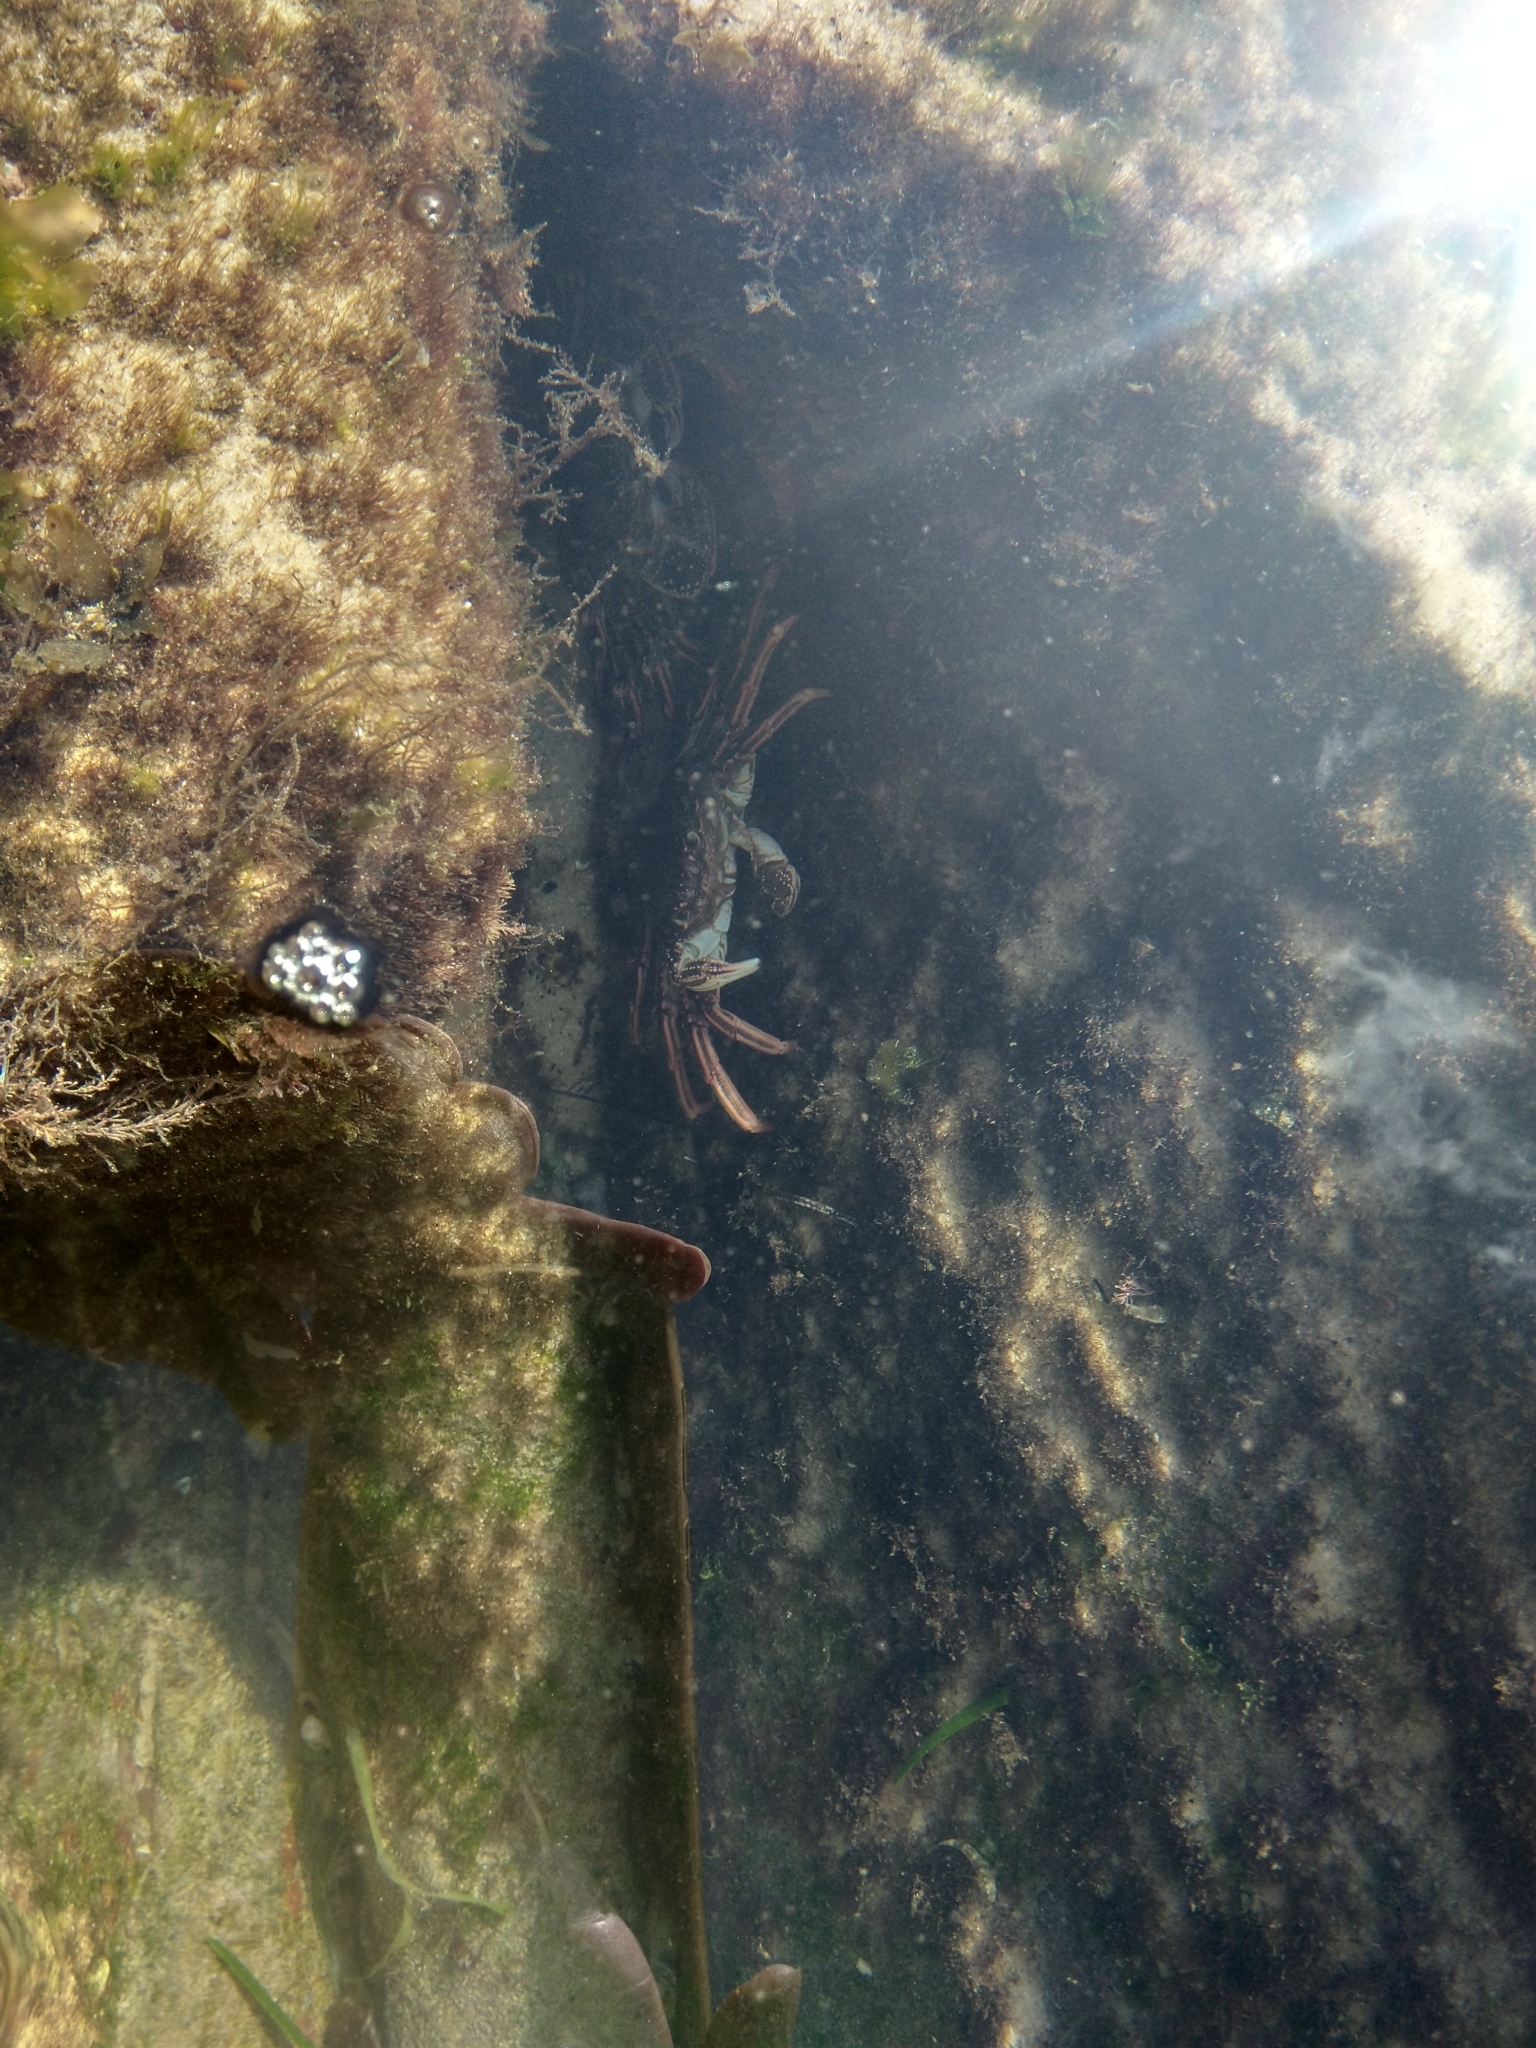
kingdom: Animalia
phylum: Arthropoda
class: Malacostraca
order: Decapoda
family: Plagusiidae
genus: Guinusia
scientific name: Guinusia chabrus
